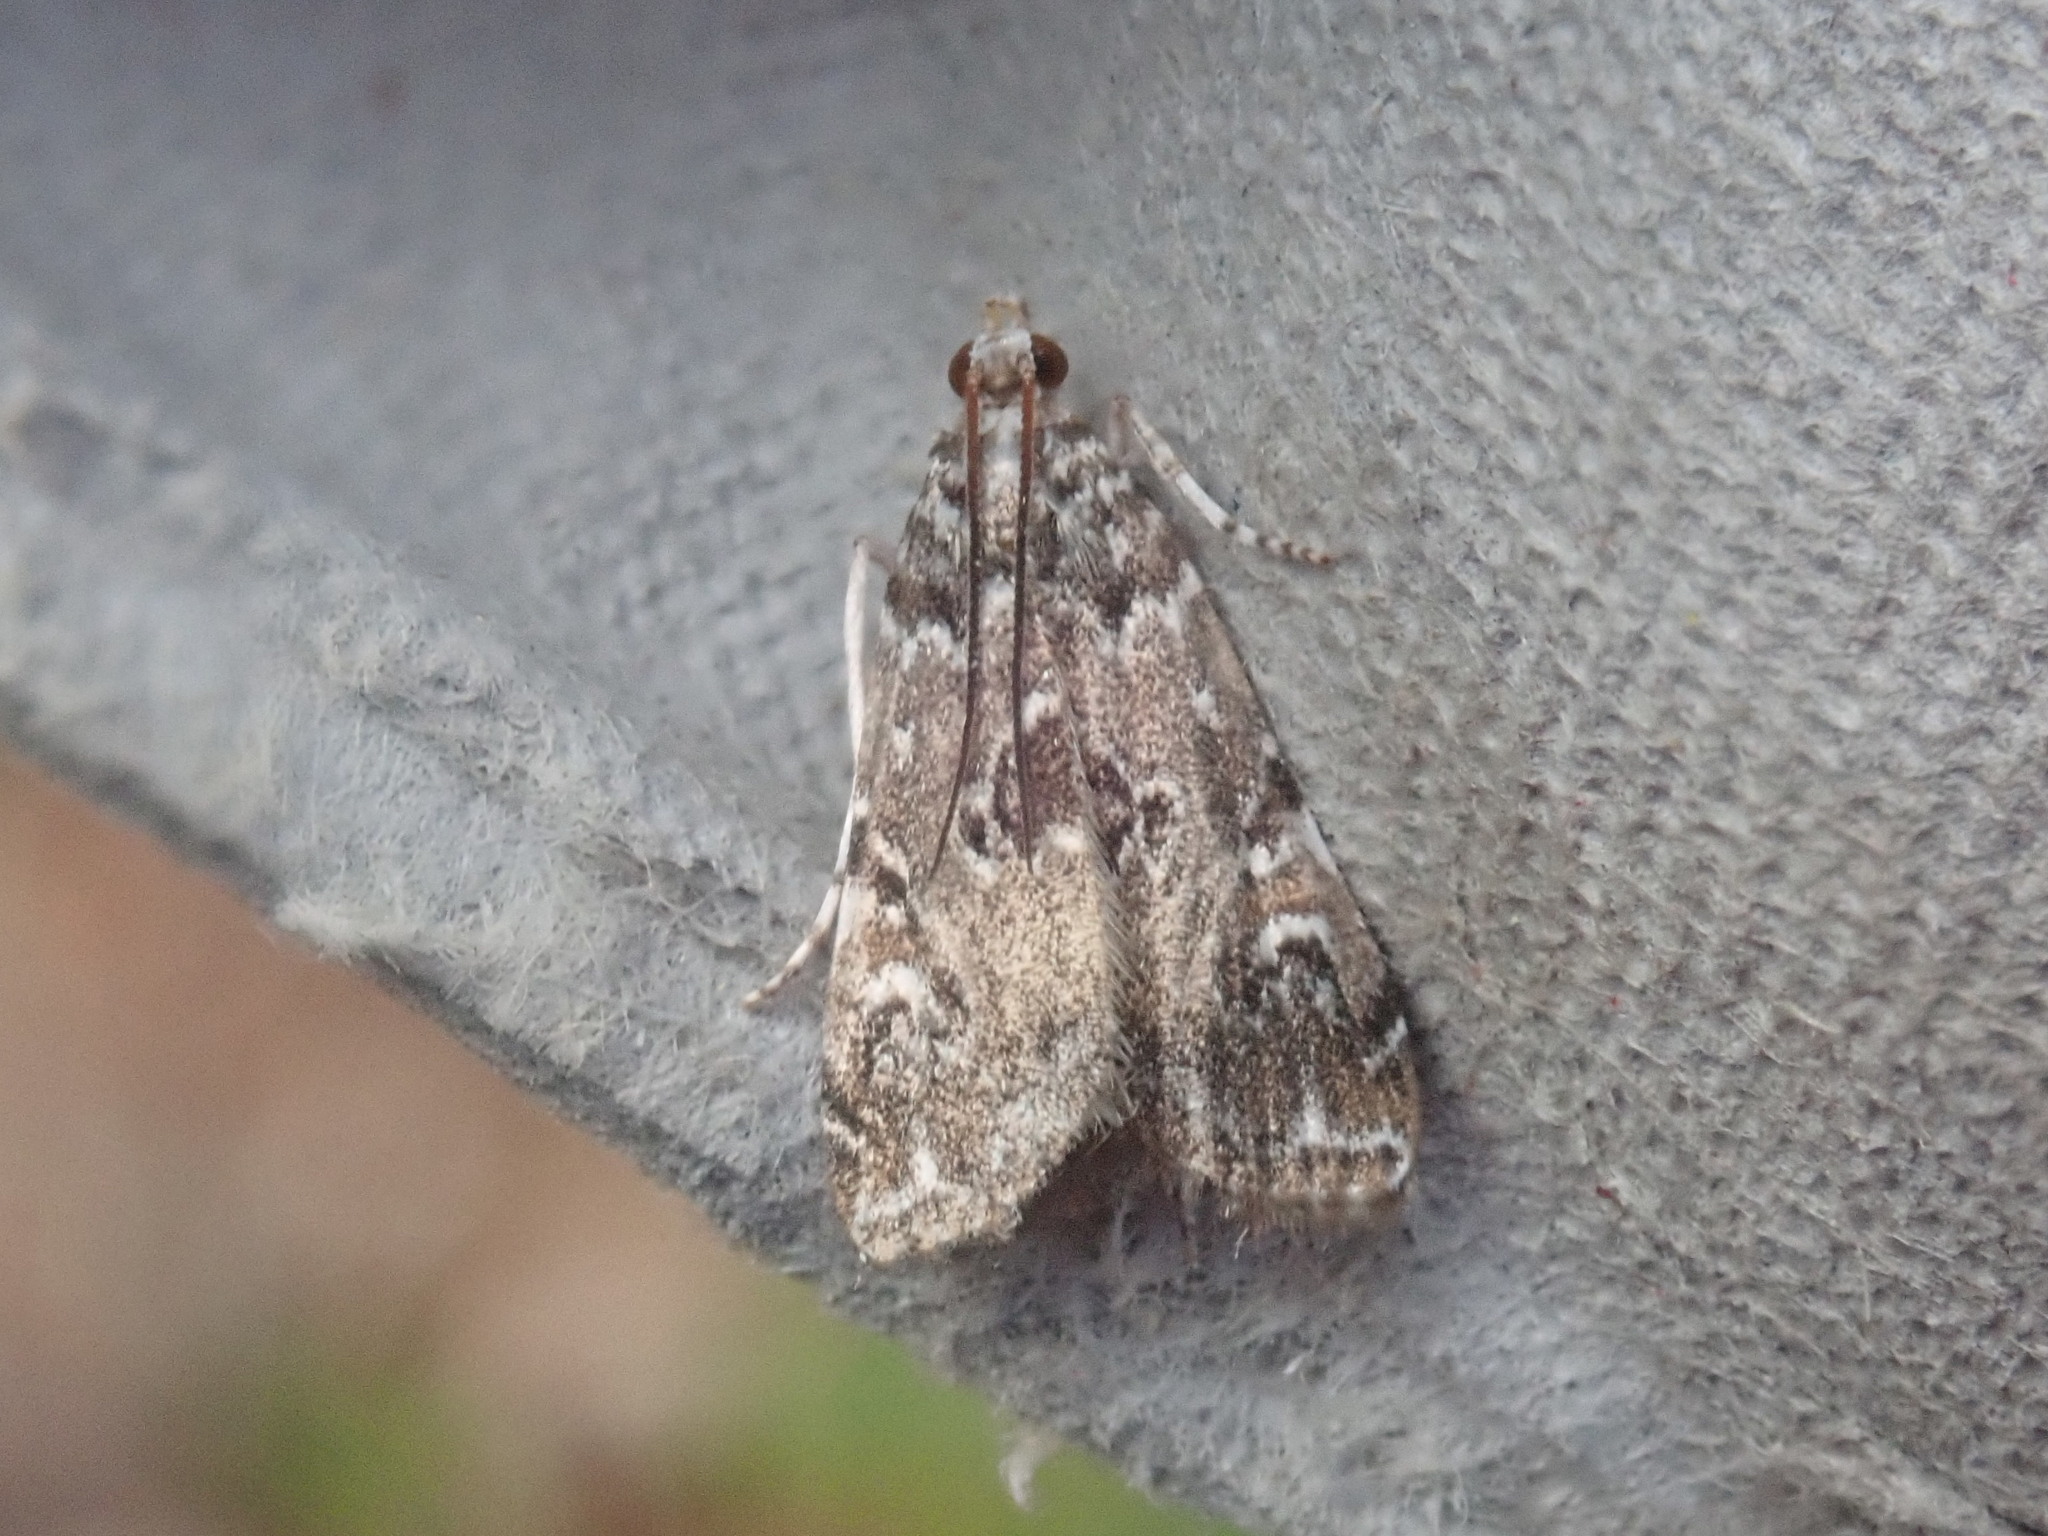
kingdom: Animalia
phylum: Arthropoda
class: Insecta
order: Lepidoptera
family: Crambidae
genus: Elophila
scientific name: Elophila gyralis
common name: Waterlily borer moth
